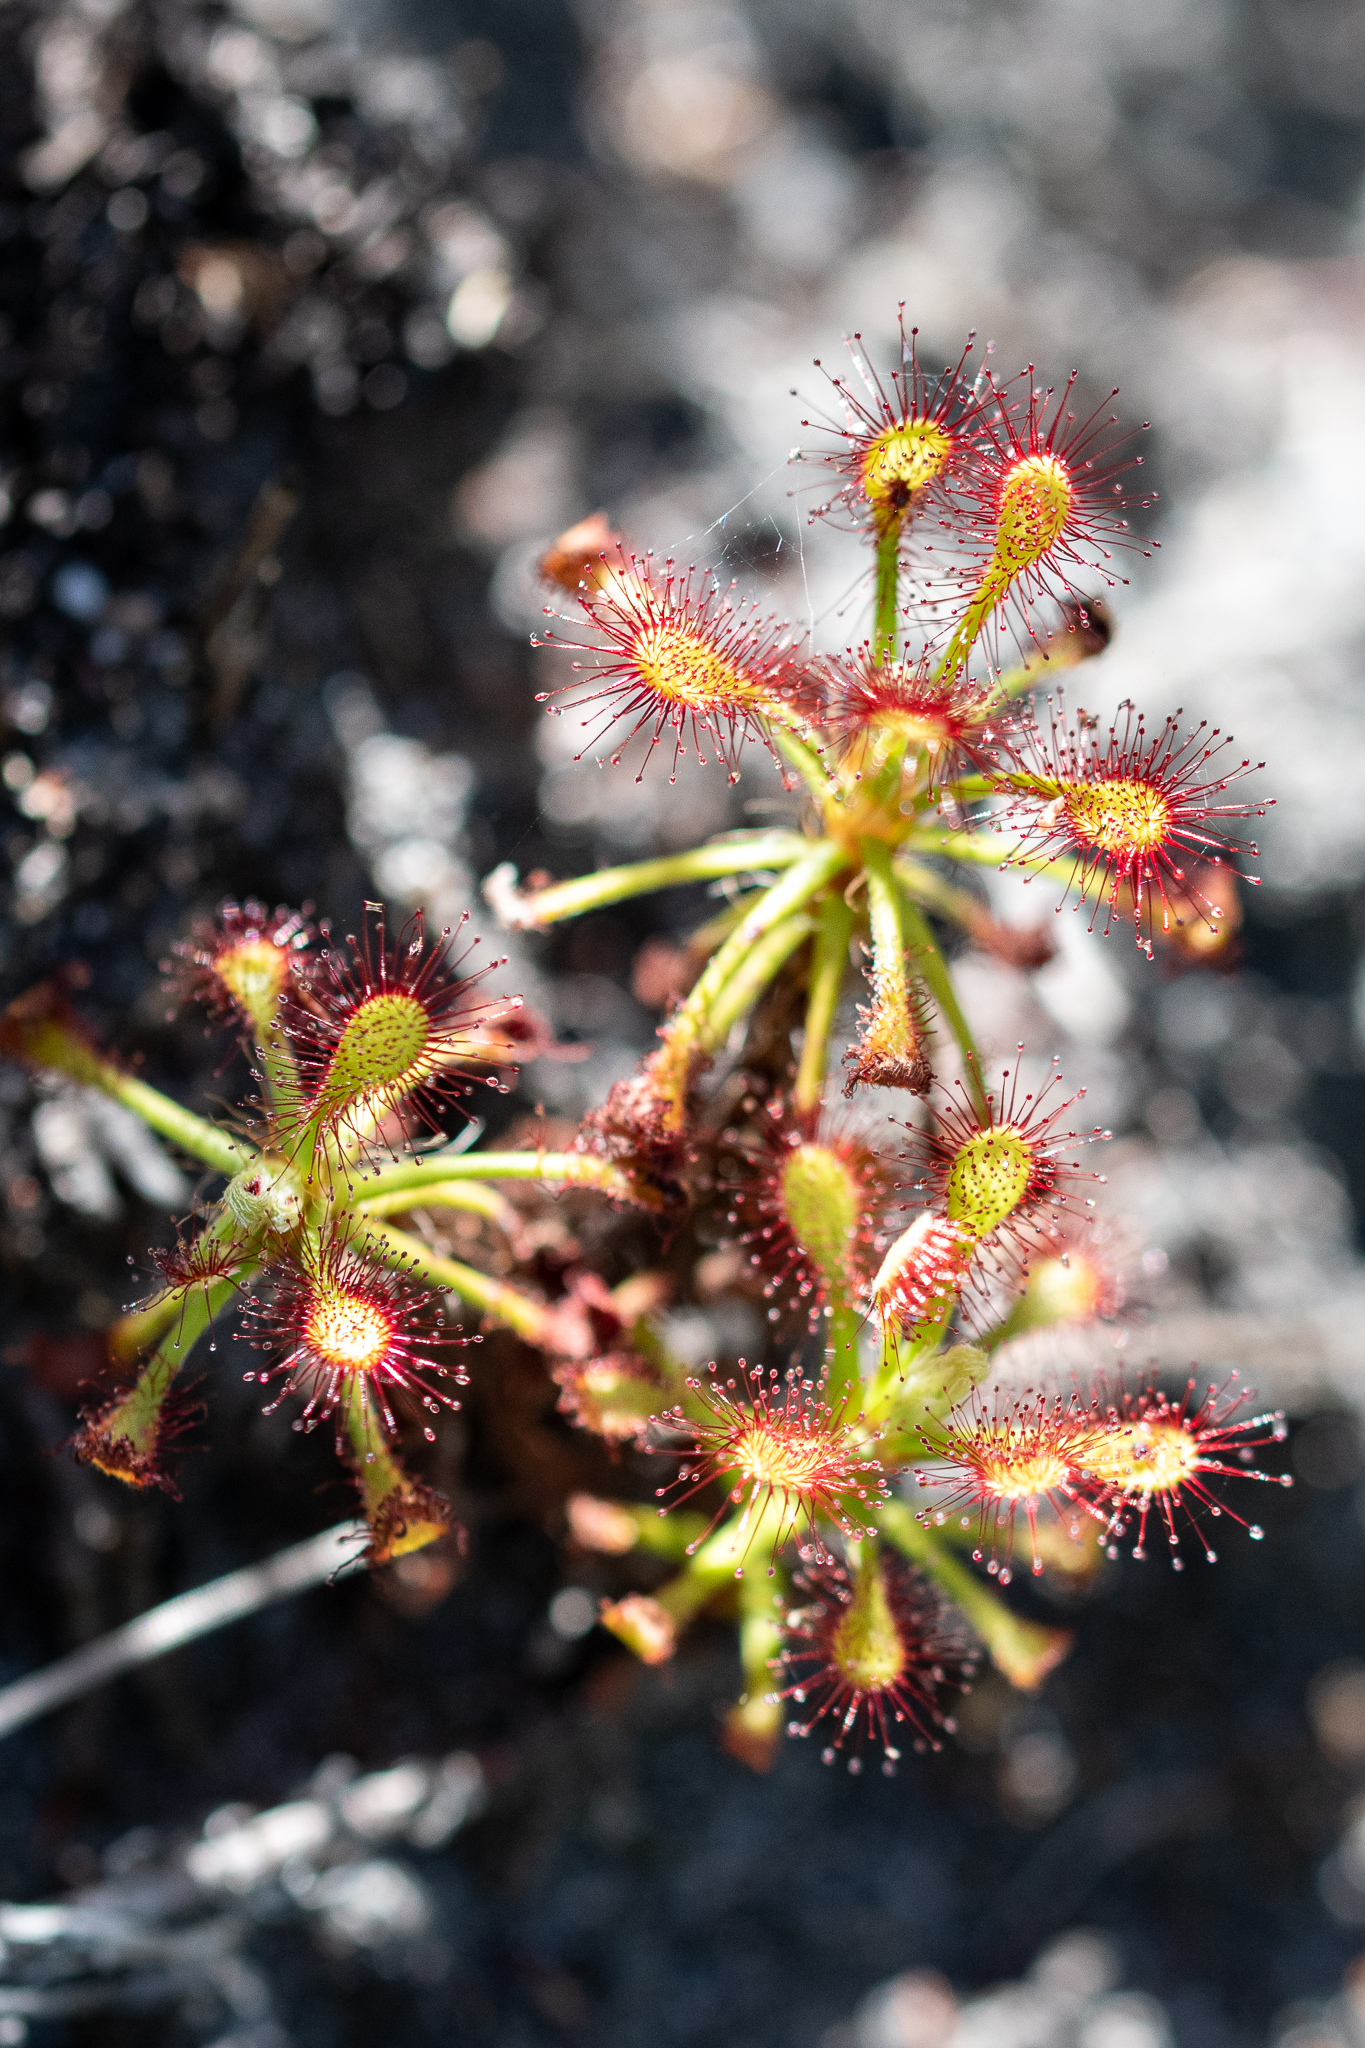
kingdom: Plantae
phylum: Tracheophyta
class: Magnoliopsida
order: Caryophyllales
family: Droseraceae
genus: Drosera
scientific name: Drosera glabripes
